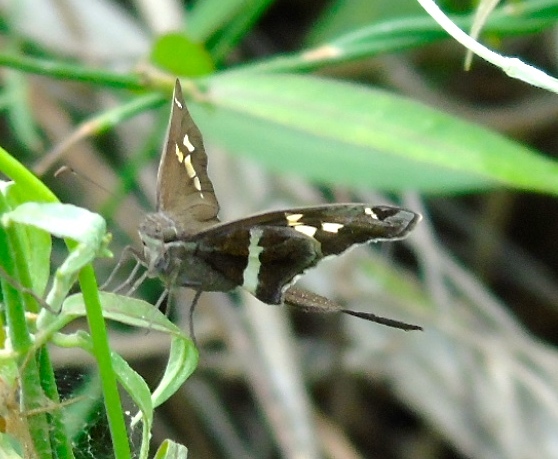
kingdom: Animalia
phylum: Arthropoda
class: Insecta
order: Lepidoptera
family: Hesperiidae
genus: Chioides
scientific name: Chioides catillus
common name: Silverbanded skipper
